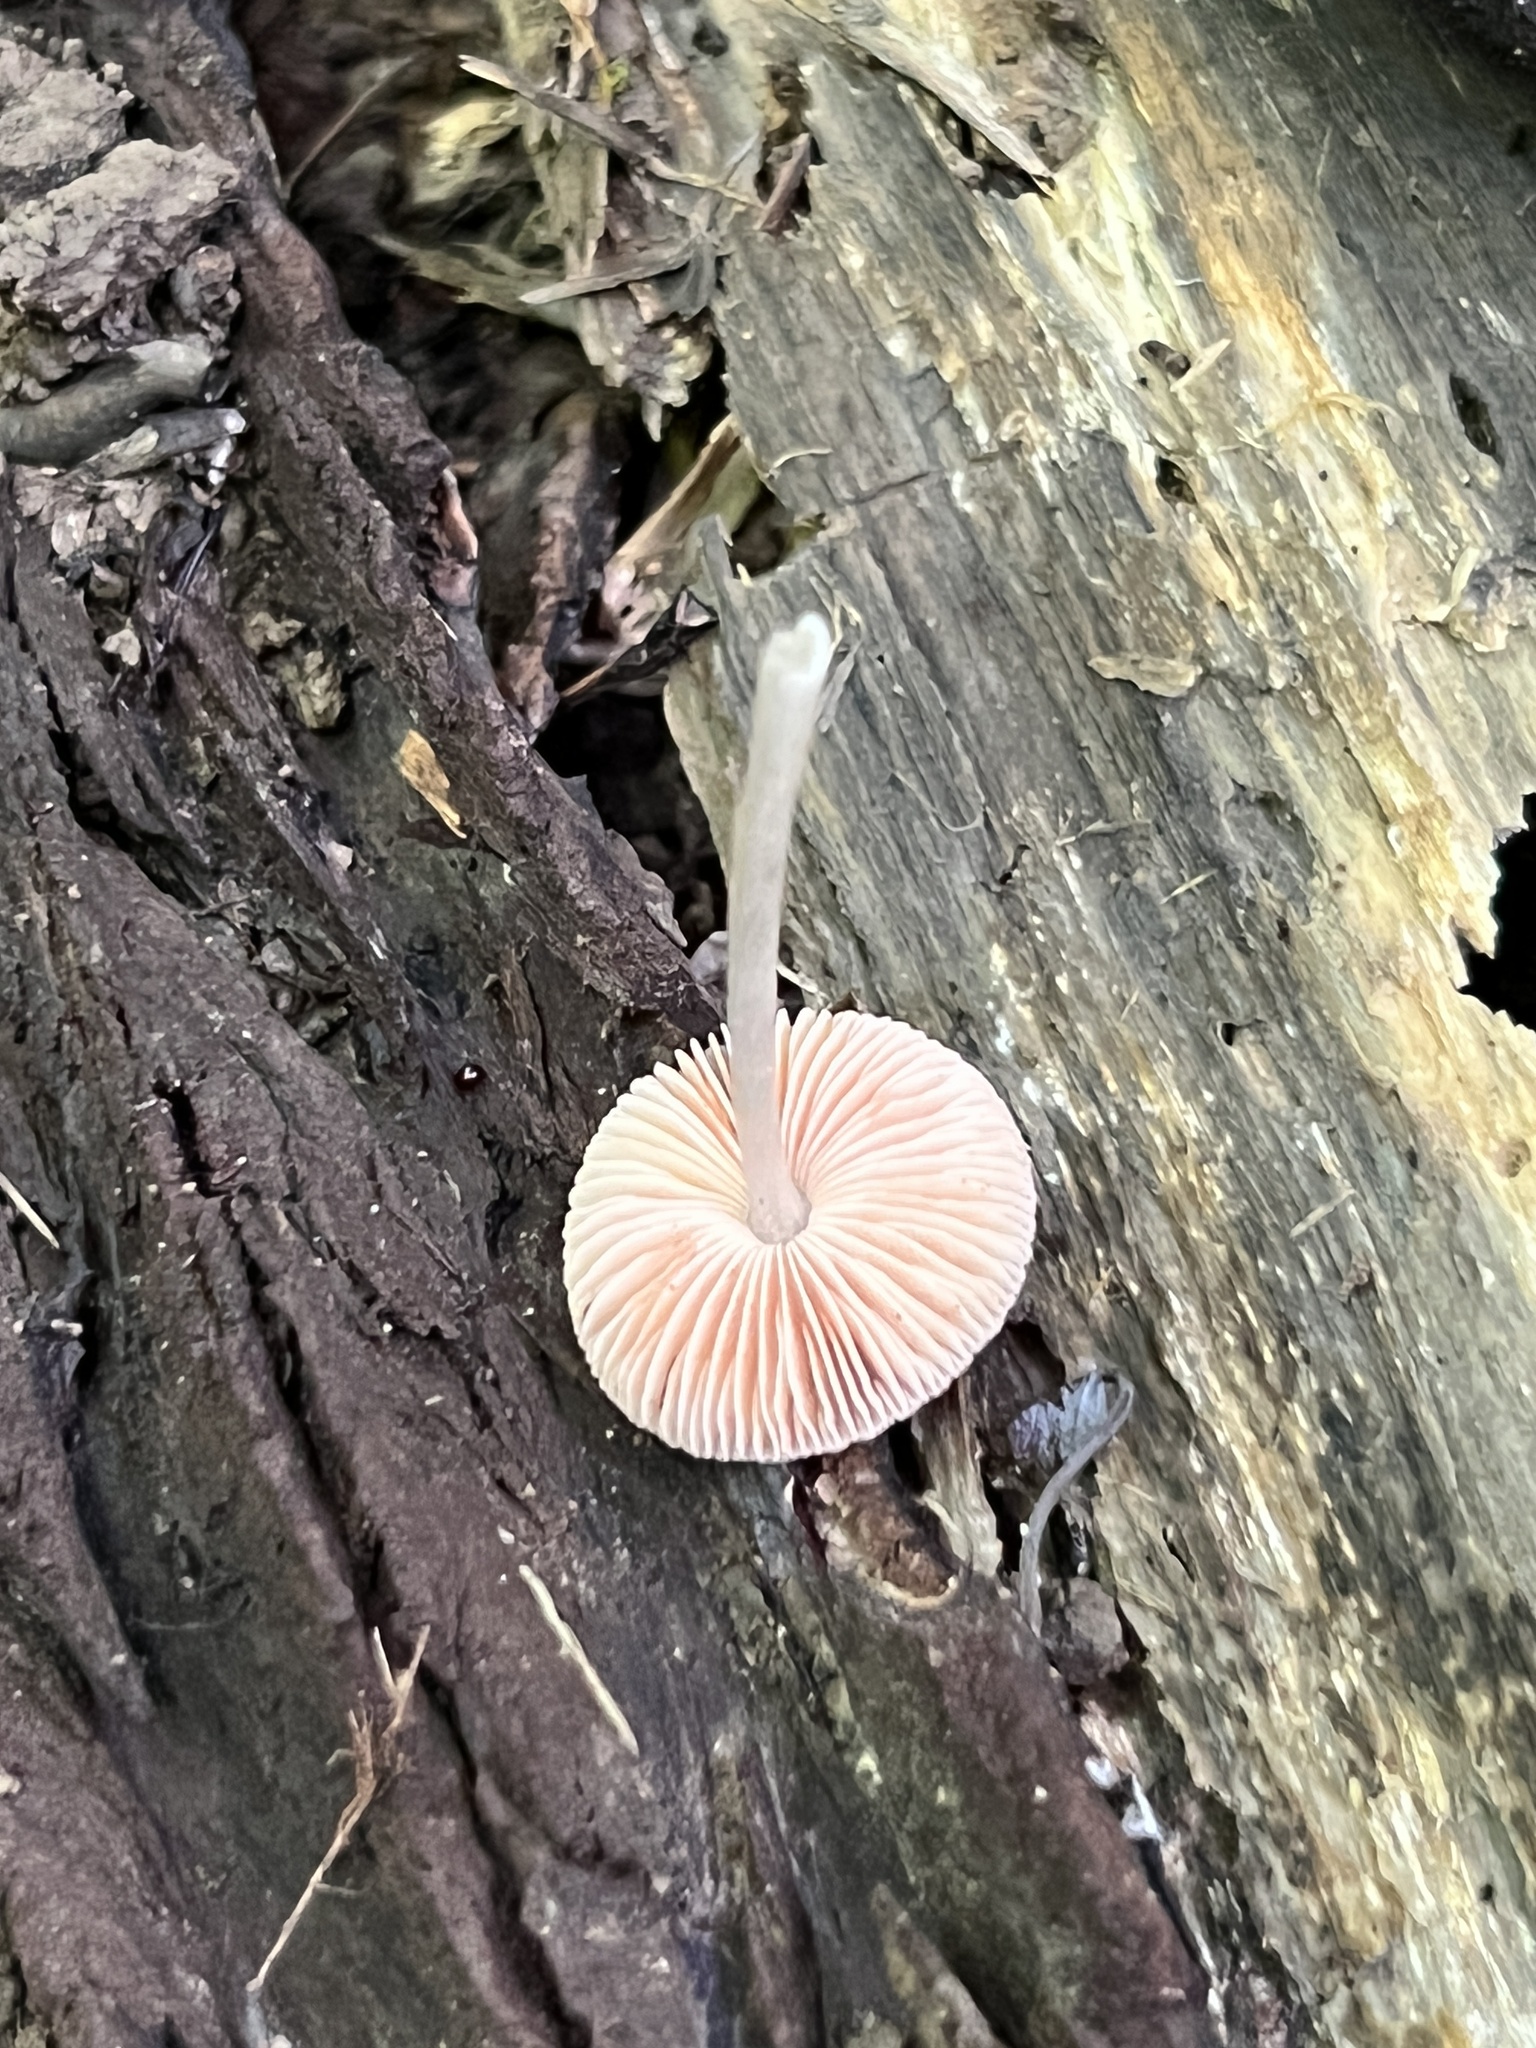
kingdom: Fungi
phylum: Basidiomycota
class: Agaricomycetes
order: Agaricales
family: Pluteaceae
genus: Pluteus
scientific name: Pluteus
